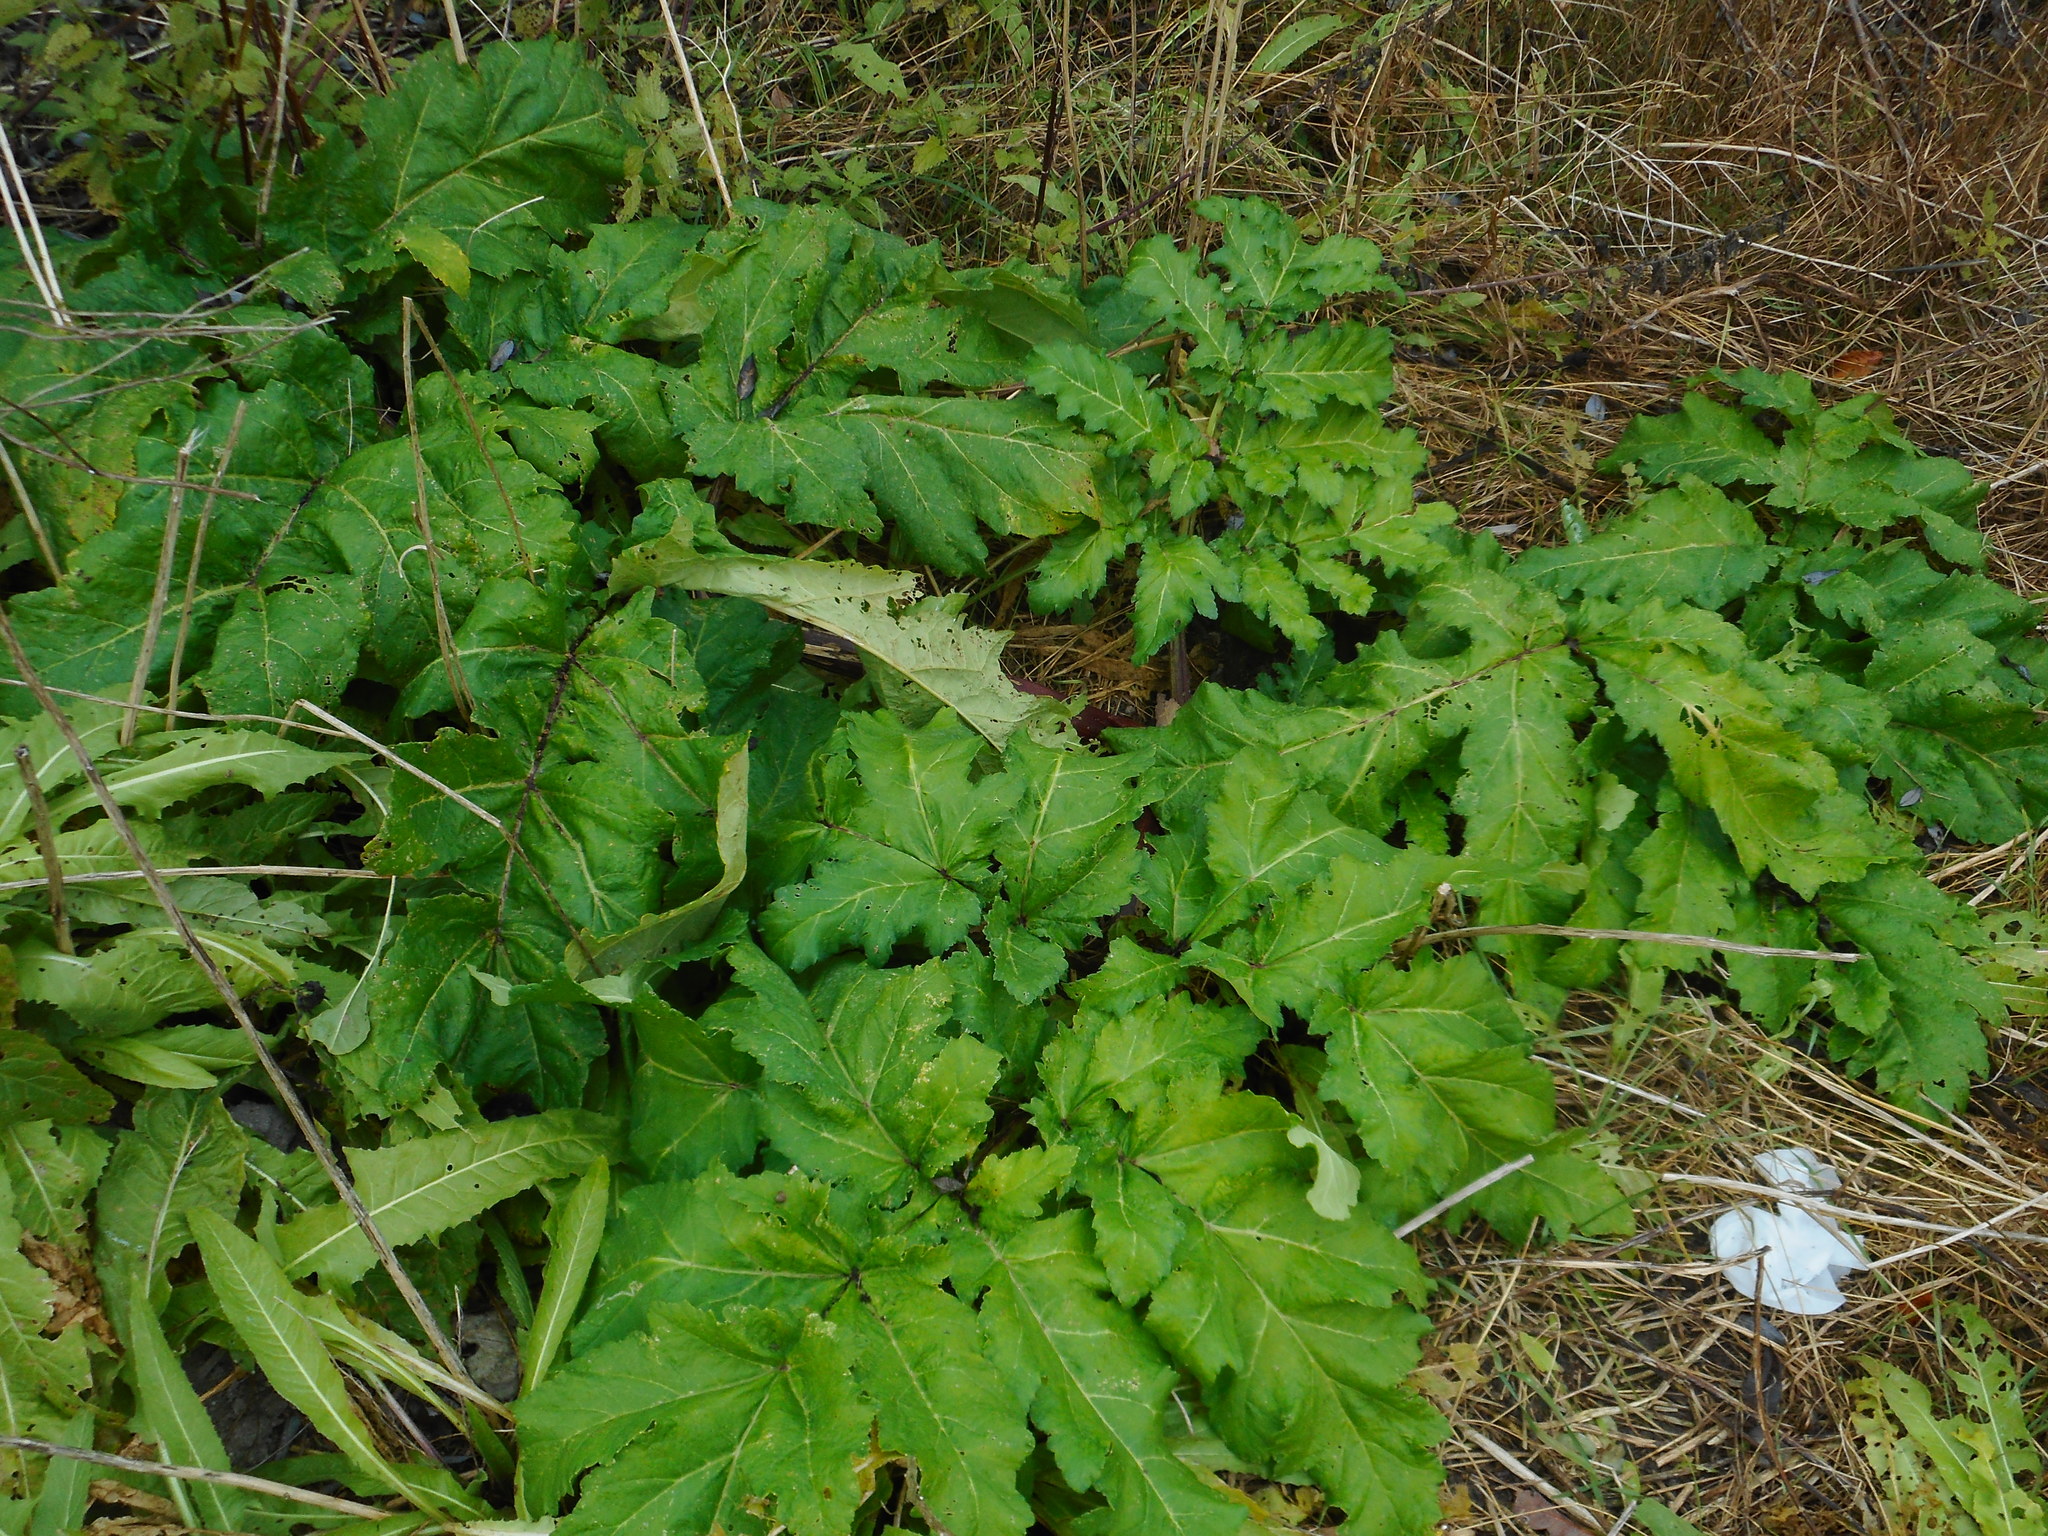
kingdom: Plantae
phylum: Tracheophyta
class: Magnoliopsida
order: Apiales
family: Apiaceae
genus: Heracleum
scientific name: Heracleum sosnowskyi
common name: Sosnowsky's hogweed
